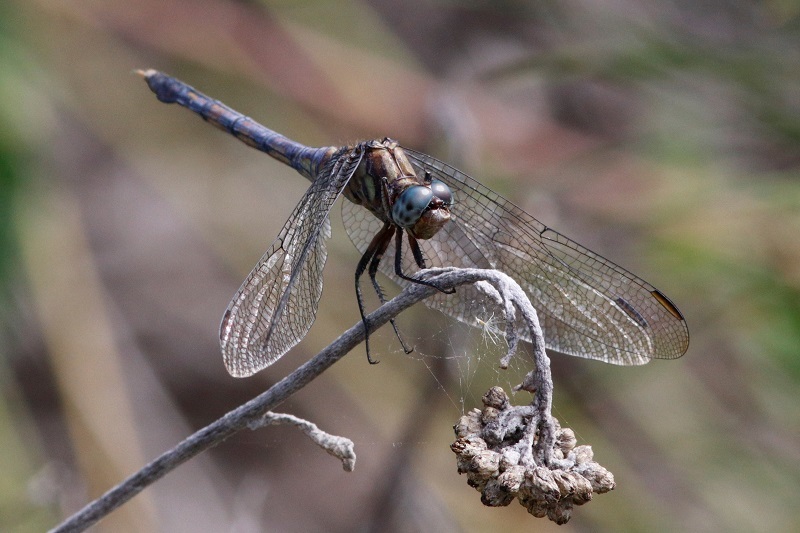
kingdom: Animalia
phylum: Arthropoda
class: Insecta
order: Odonata
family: Libellulidae
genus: Orthetrum
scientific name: Orthetrum julia
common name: Julia skimmer
